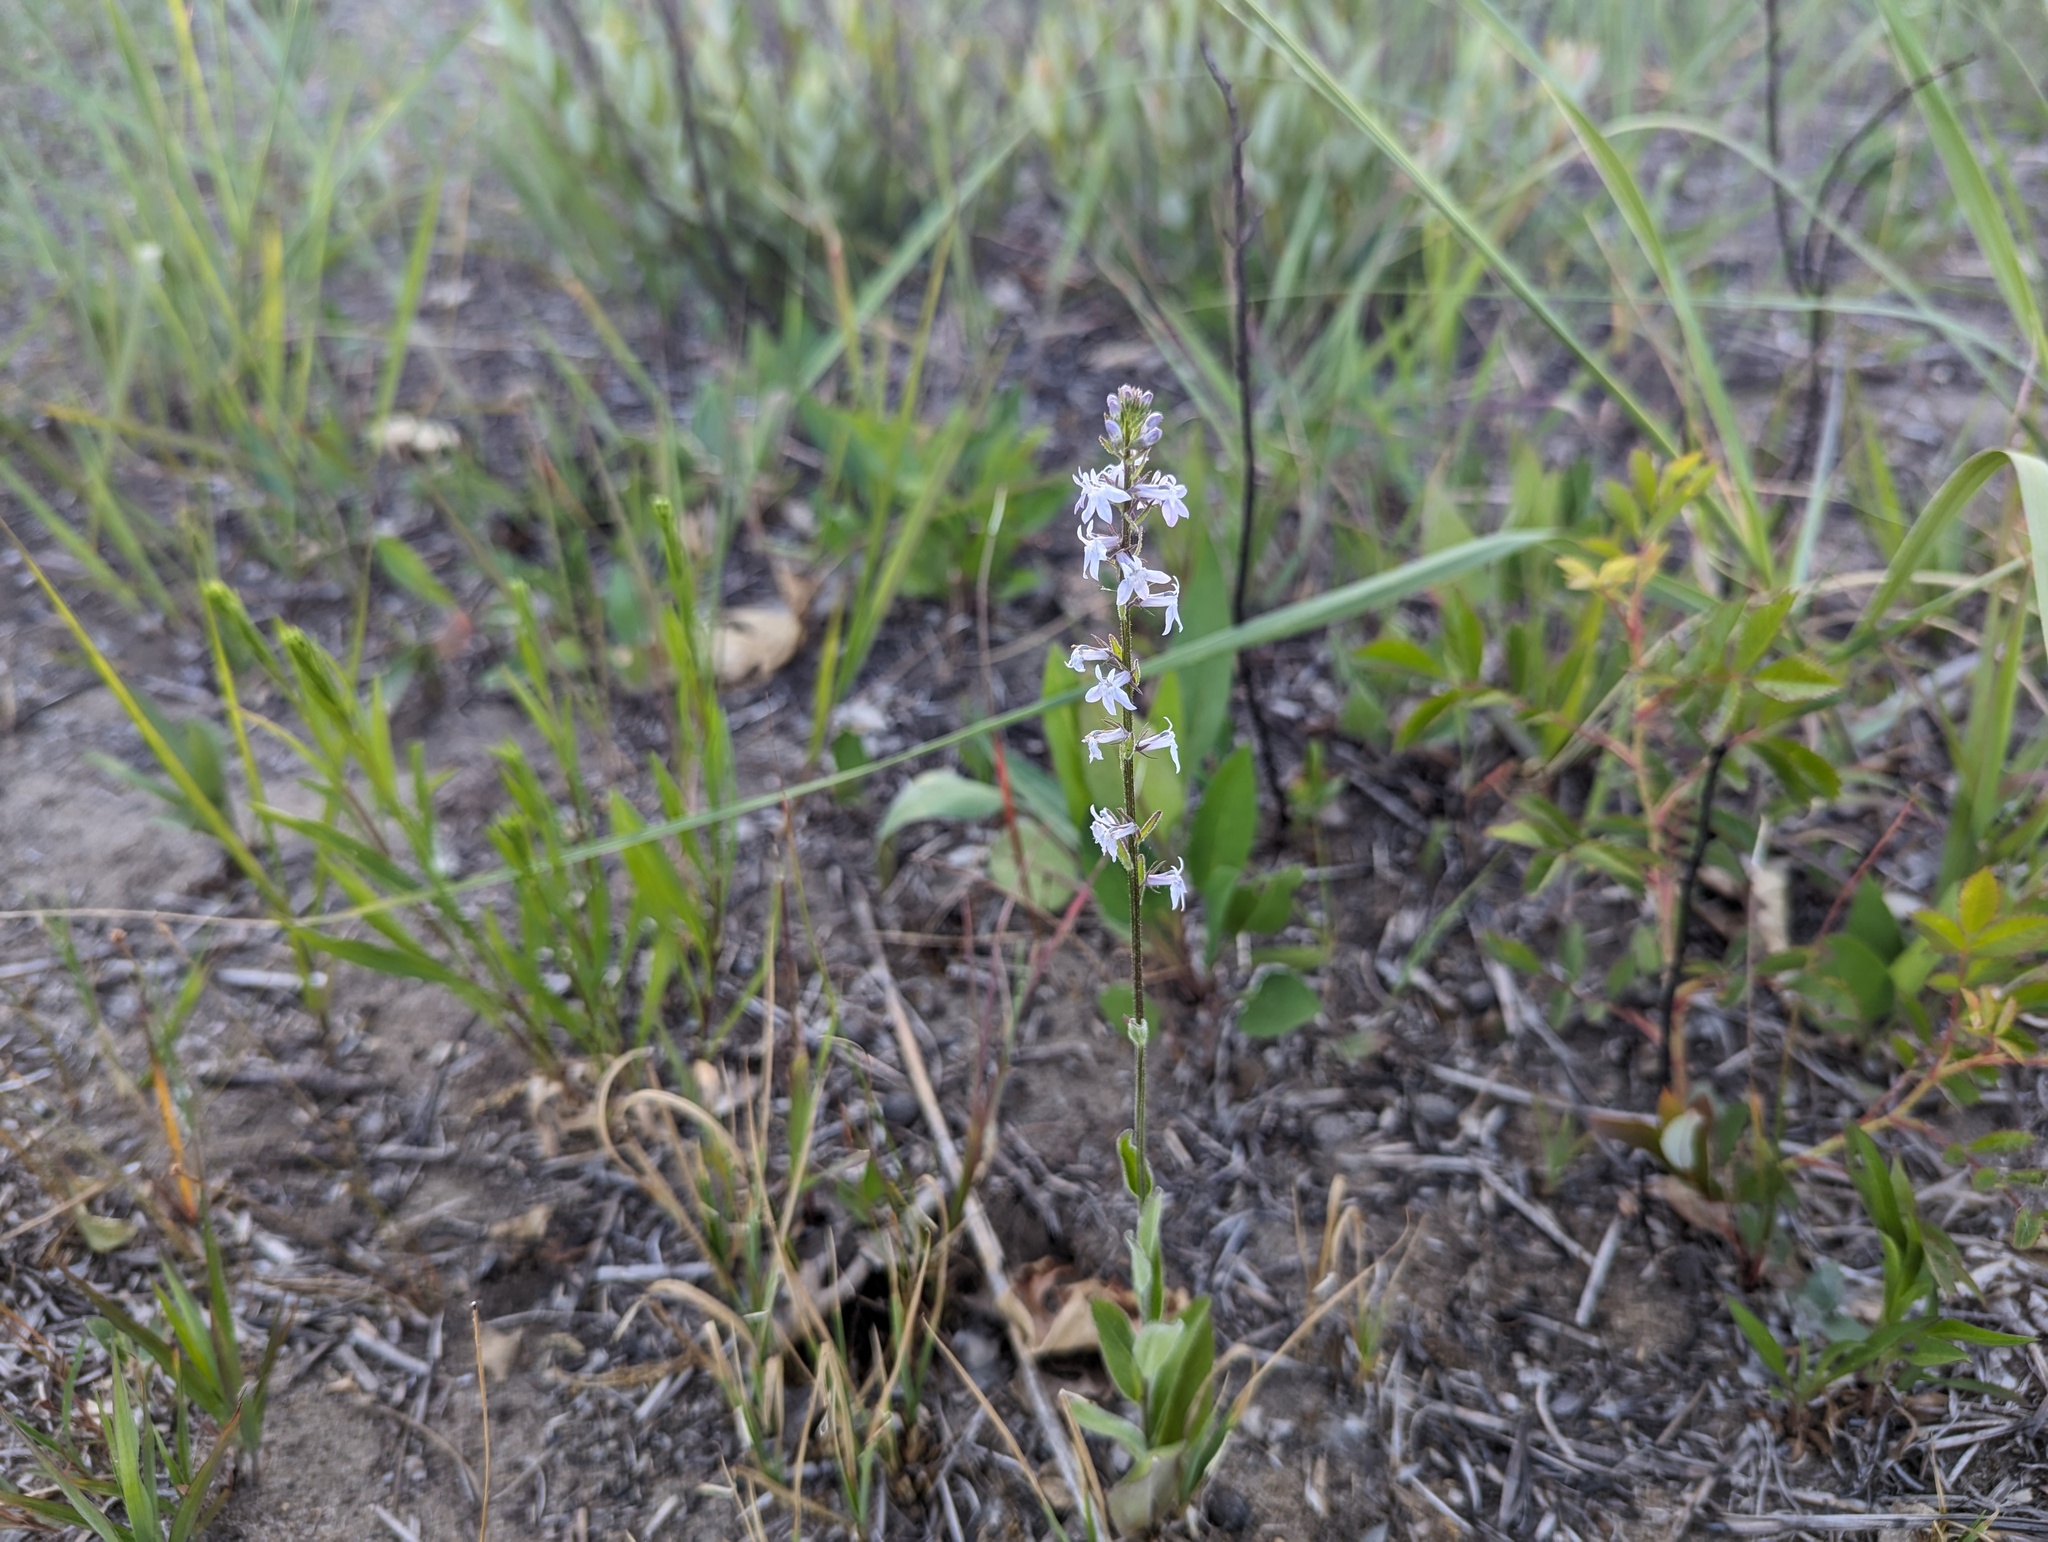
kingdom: Plantae
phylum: Tracheophyta
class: Magnoliopsida
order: Asterales
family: Campanulaceae
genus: Lobelia
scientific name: Lobelia spicata
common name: Pale-spike lobelia
